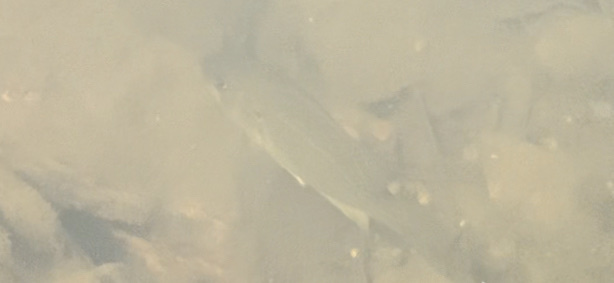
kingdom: Animalia
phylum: Chordata
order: Perciformes
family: Centrarchidae
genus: Ambloplites
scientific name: Ambloplites rupestris
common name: Rock bass
